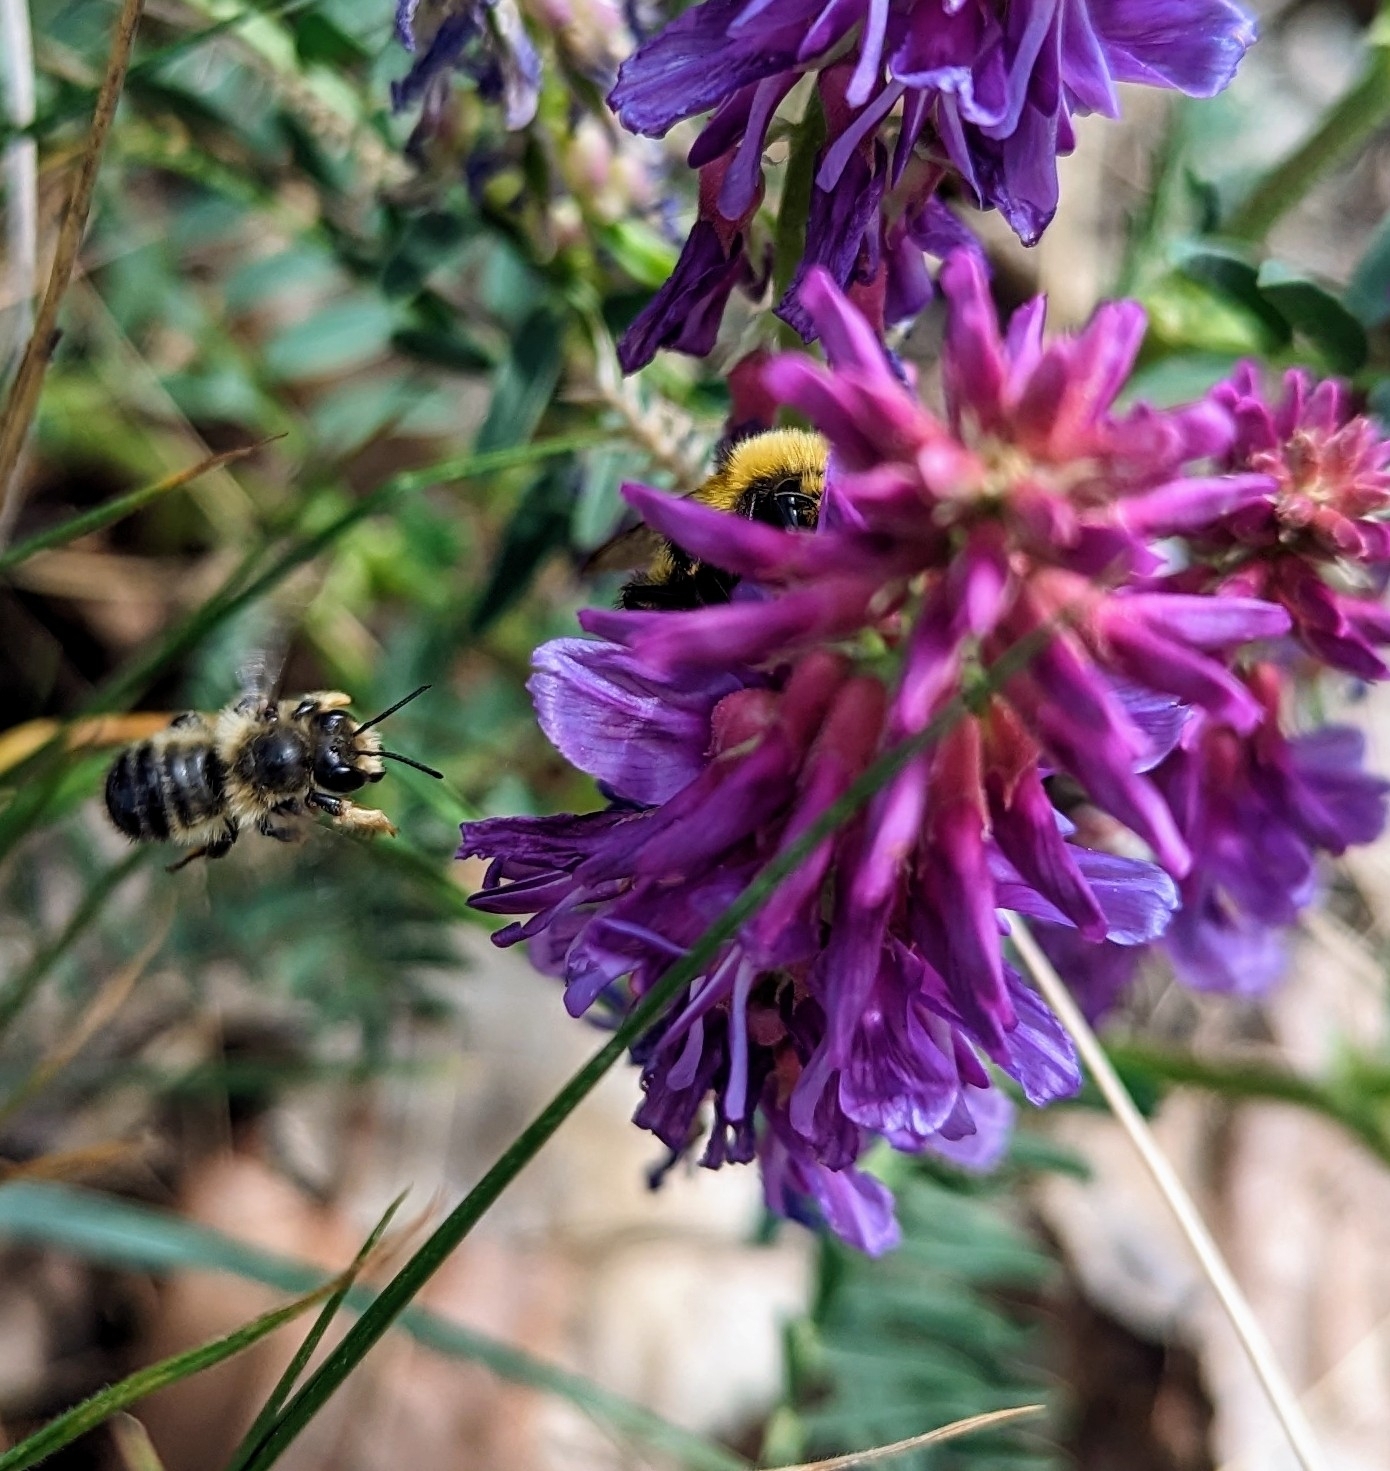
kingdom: Animalia
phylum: Arthropoda
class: Insecta
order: Hymenoptera
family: Megachilidae
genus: Megachile
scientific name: Megachile frigida
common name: Frigid leafcutter
